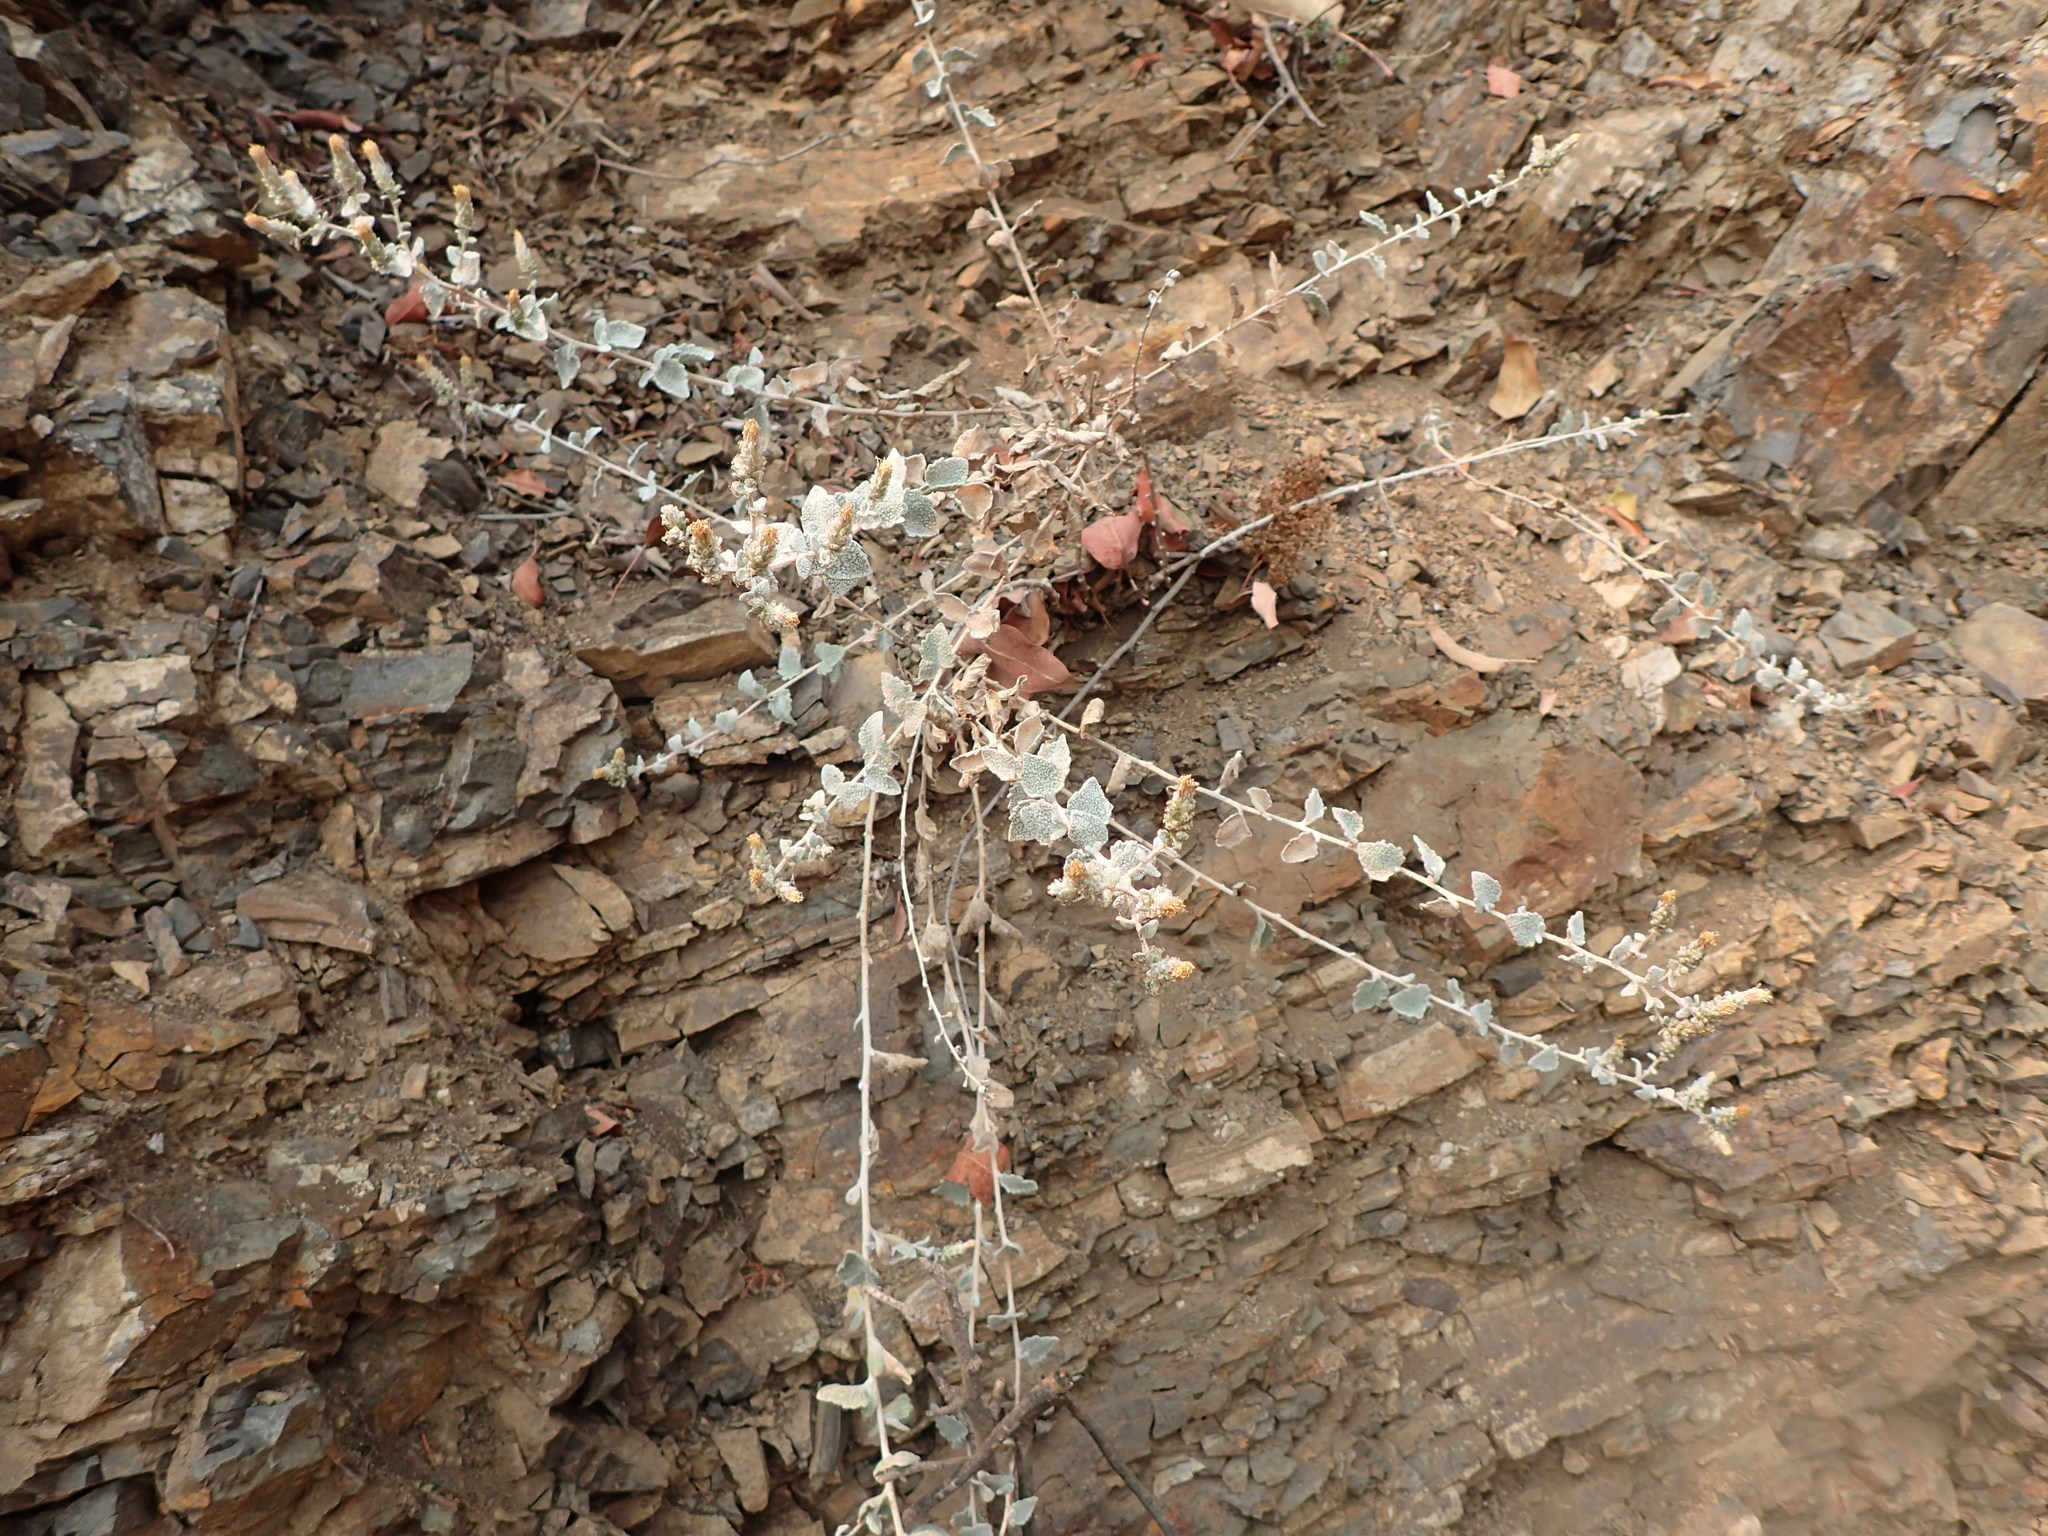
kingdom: Plantae
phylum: Tracheophyta
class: Magnoliopsida
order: Asterales
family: Asteraceae
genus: Brickellia
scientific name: Brickellia nevinii
